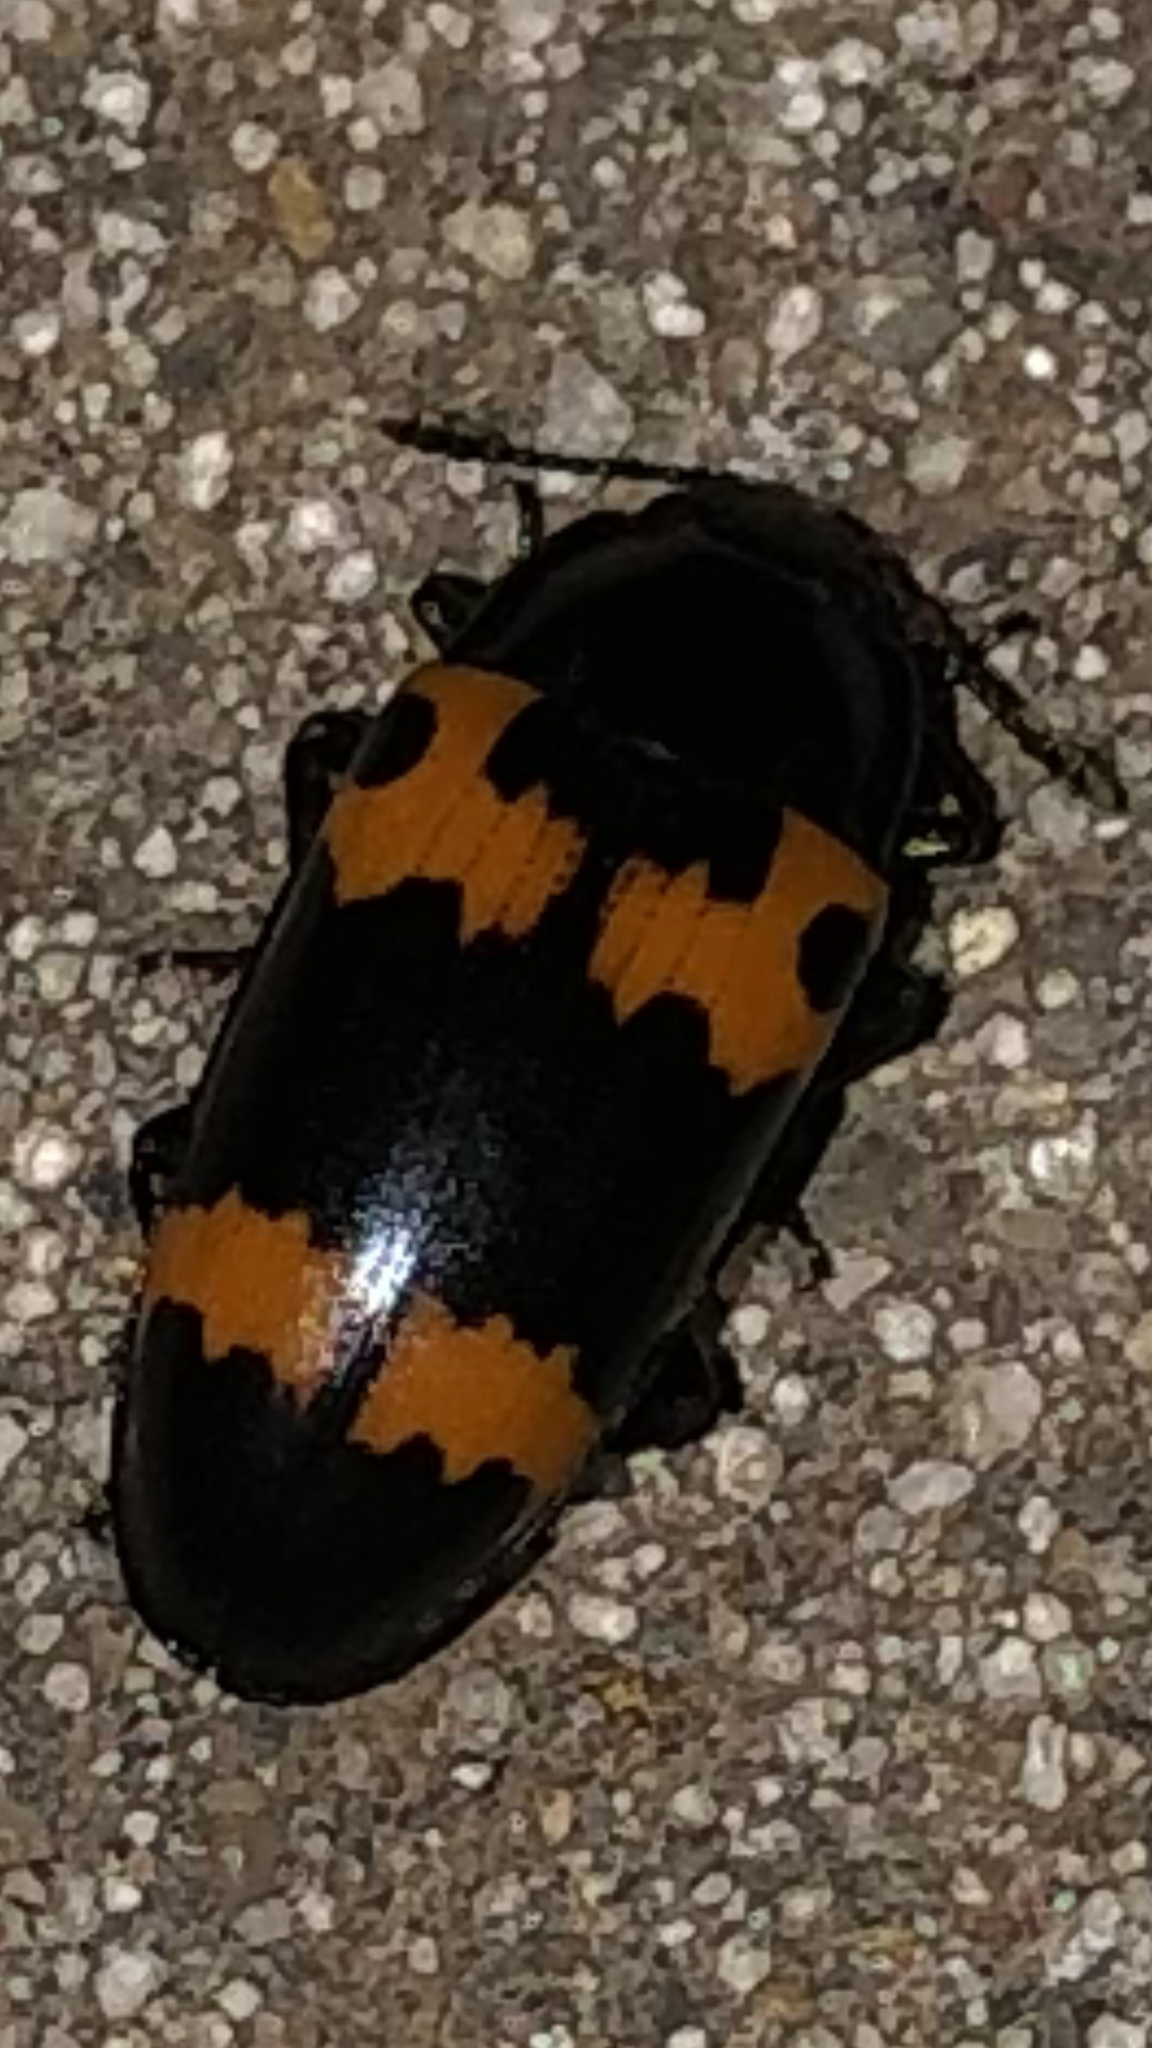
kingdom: Animalia
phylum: Arthropoda
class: Insecta
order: Coleoptera
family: Erotylidae
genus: Megalodacne
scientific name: Megalodacne fasciata
